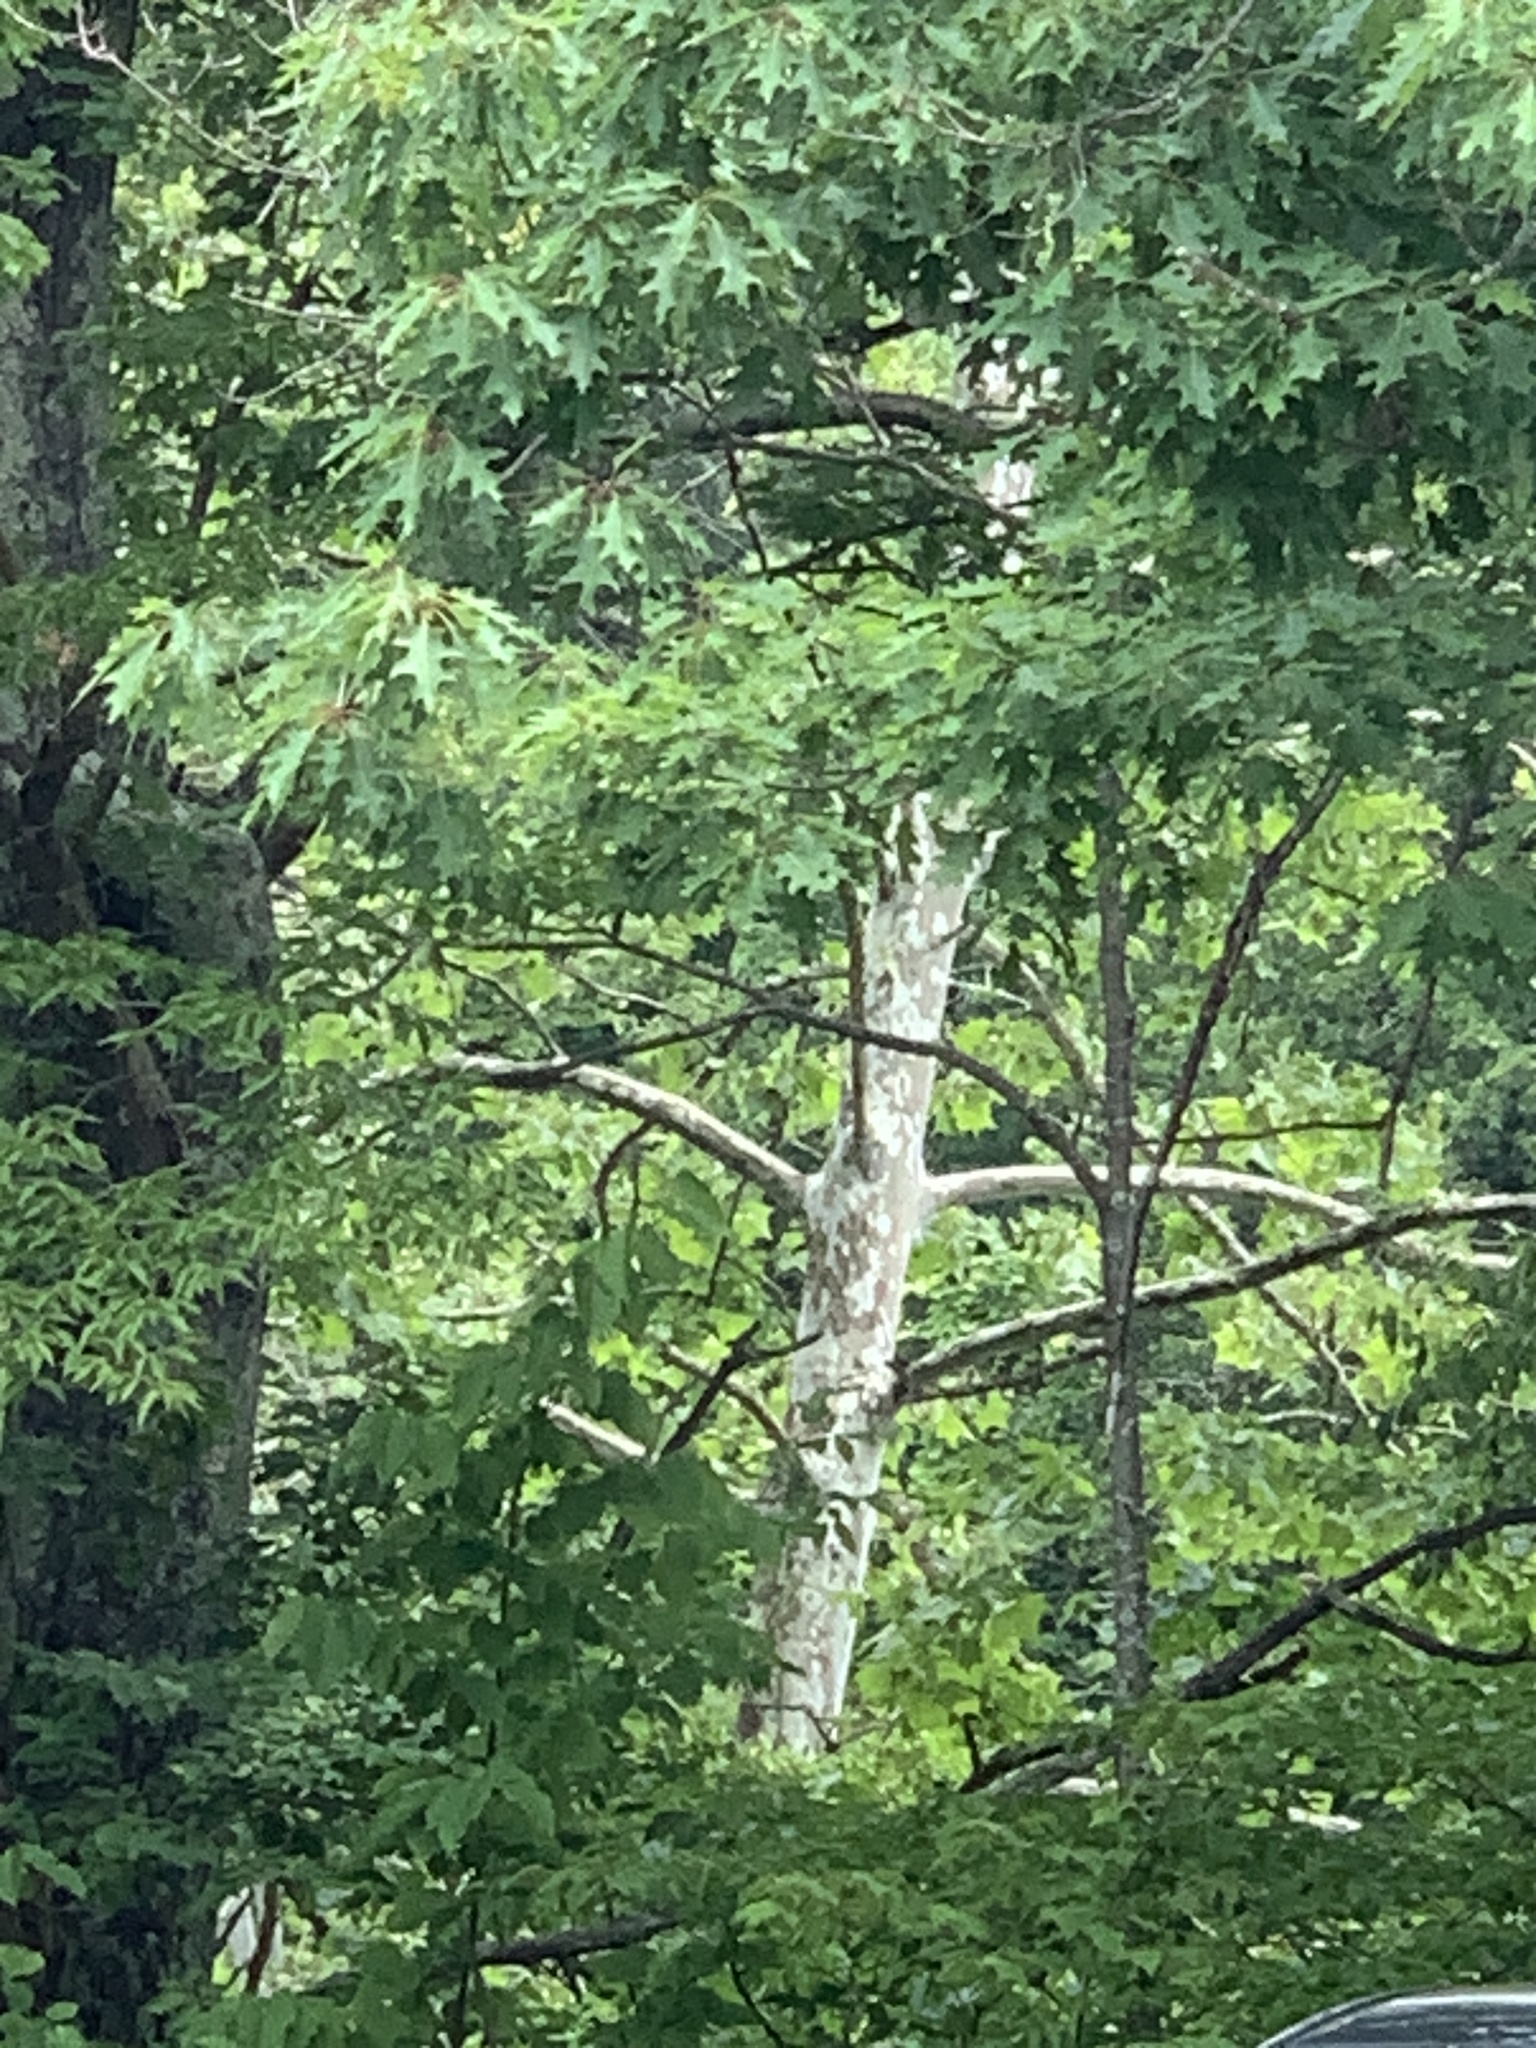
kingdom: Plantae
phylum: Tracheophyta
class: Magnoliopsida
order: Proteales
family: Platanaceae
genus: Platanus
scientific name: Platanus occidentalis
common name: American sycamore
